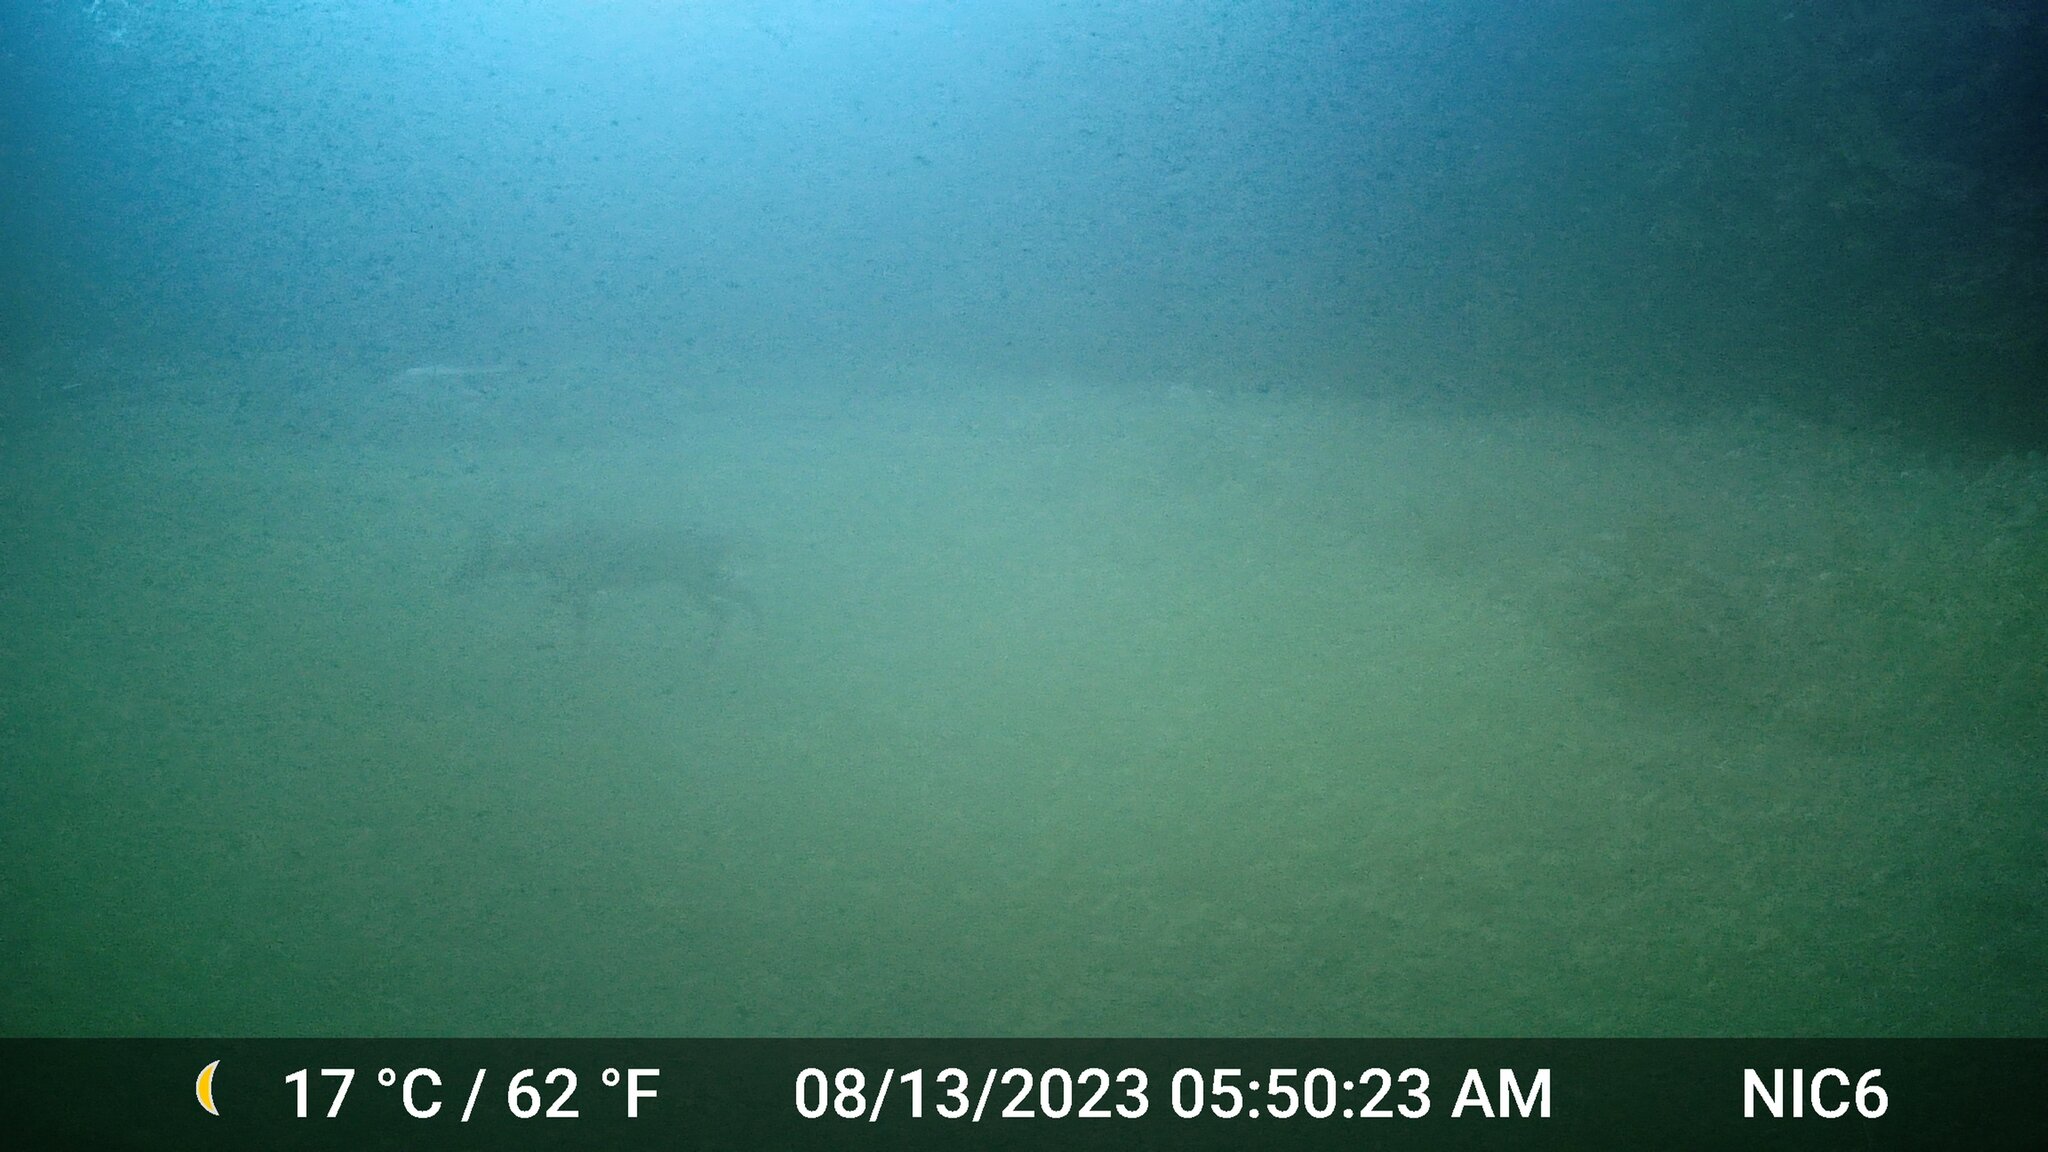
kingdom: Animalia
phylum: Chordata
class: Mammalia
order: Artiodactyla
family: Cervidae
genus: Odocoileus
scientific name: Odocoileus virginianus
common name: White-tailed deer
